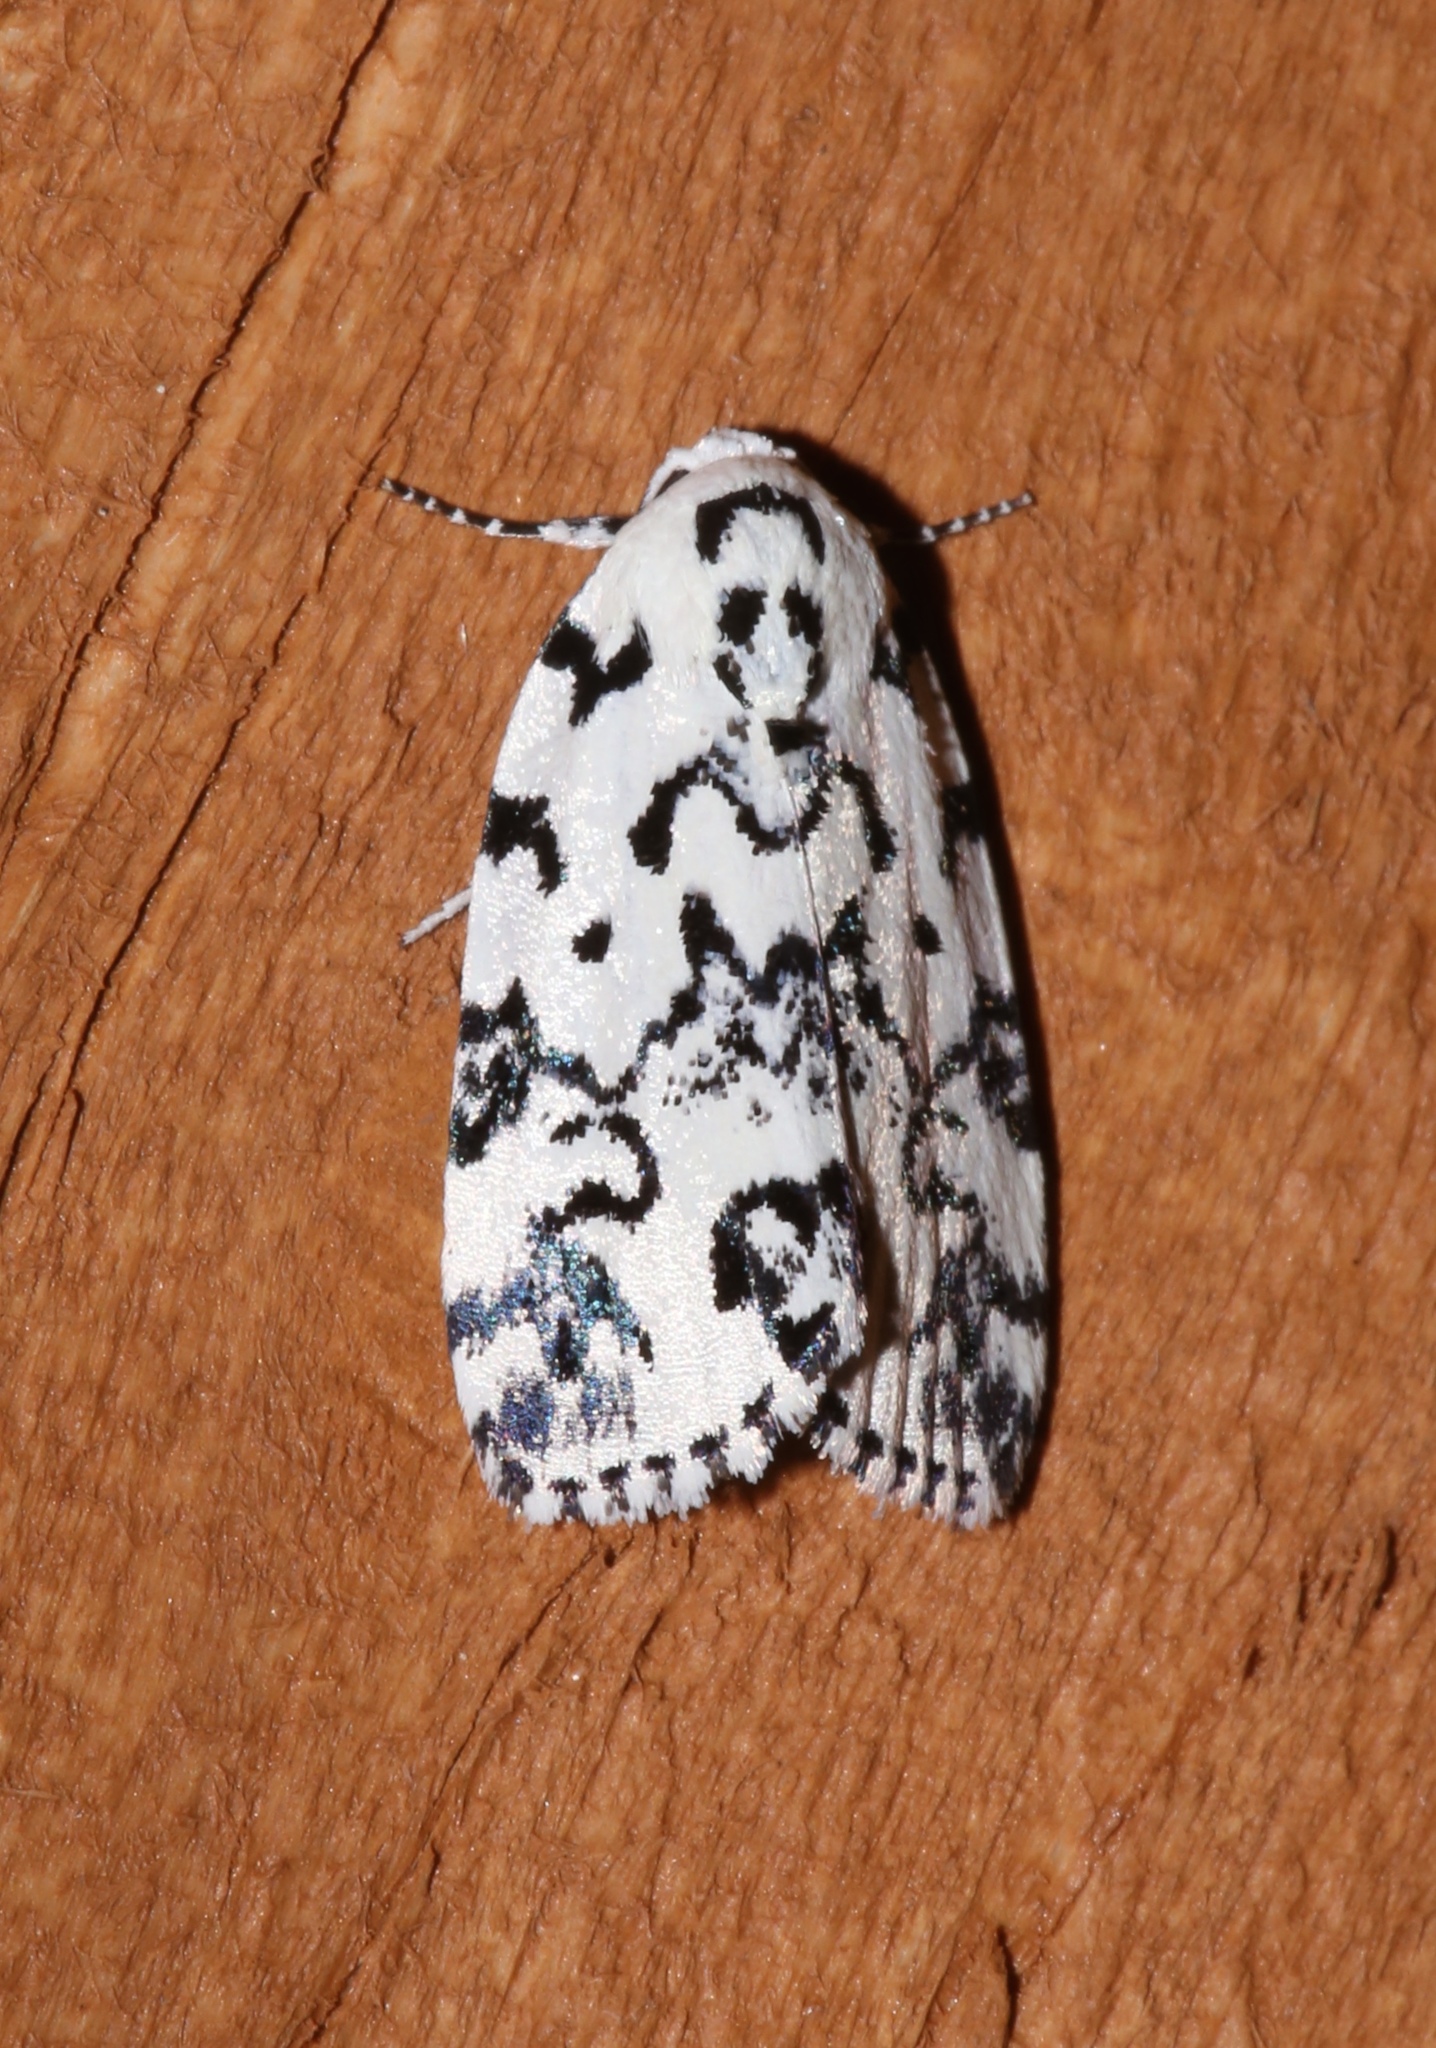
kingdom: Animalia
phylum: Arthropoda
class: Insecta
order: Lepidoptera
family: Noctuidae
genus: Polygrammate
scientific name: Polygrammate hebraeicum
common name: Hebrew moth
